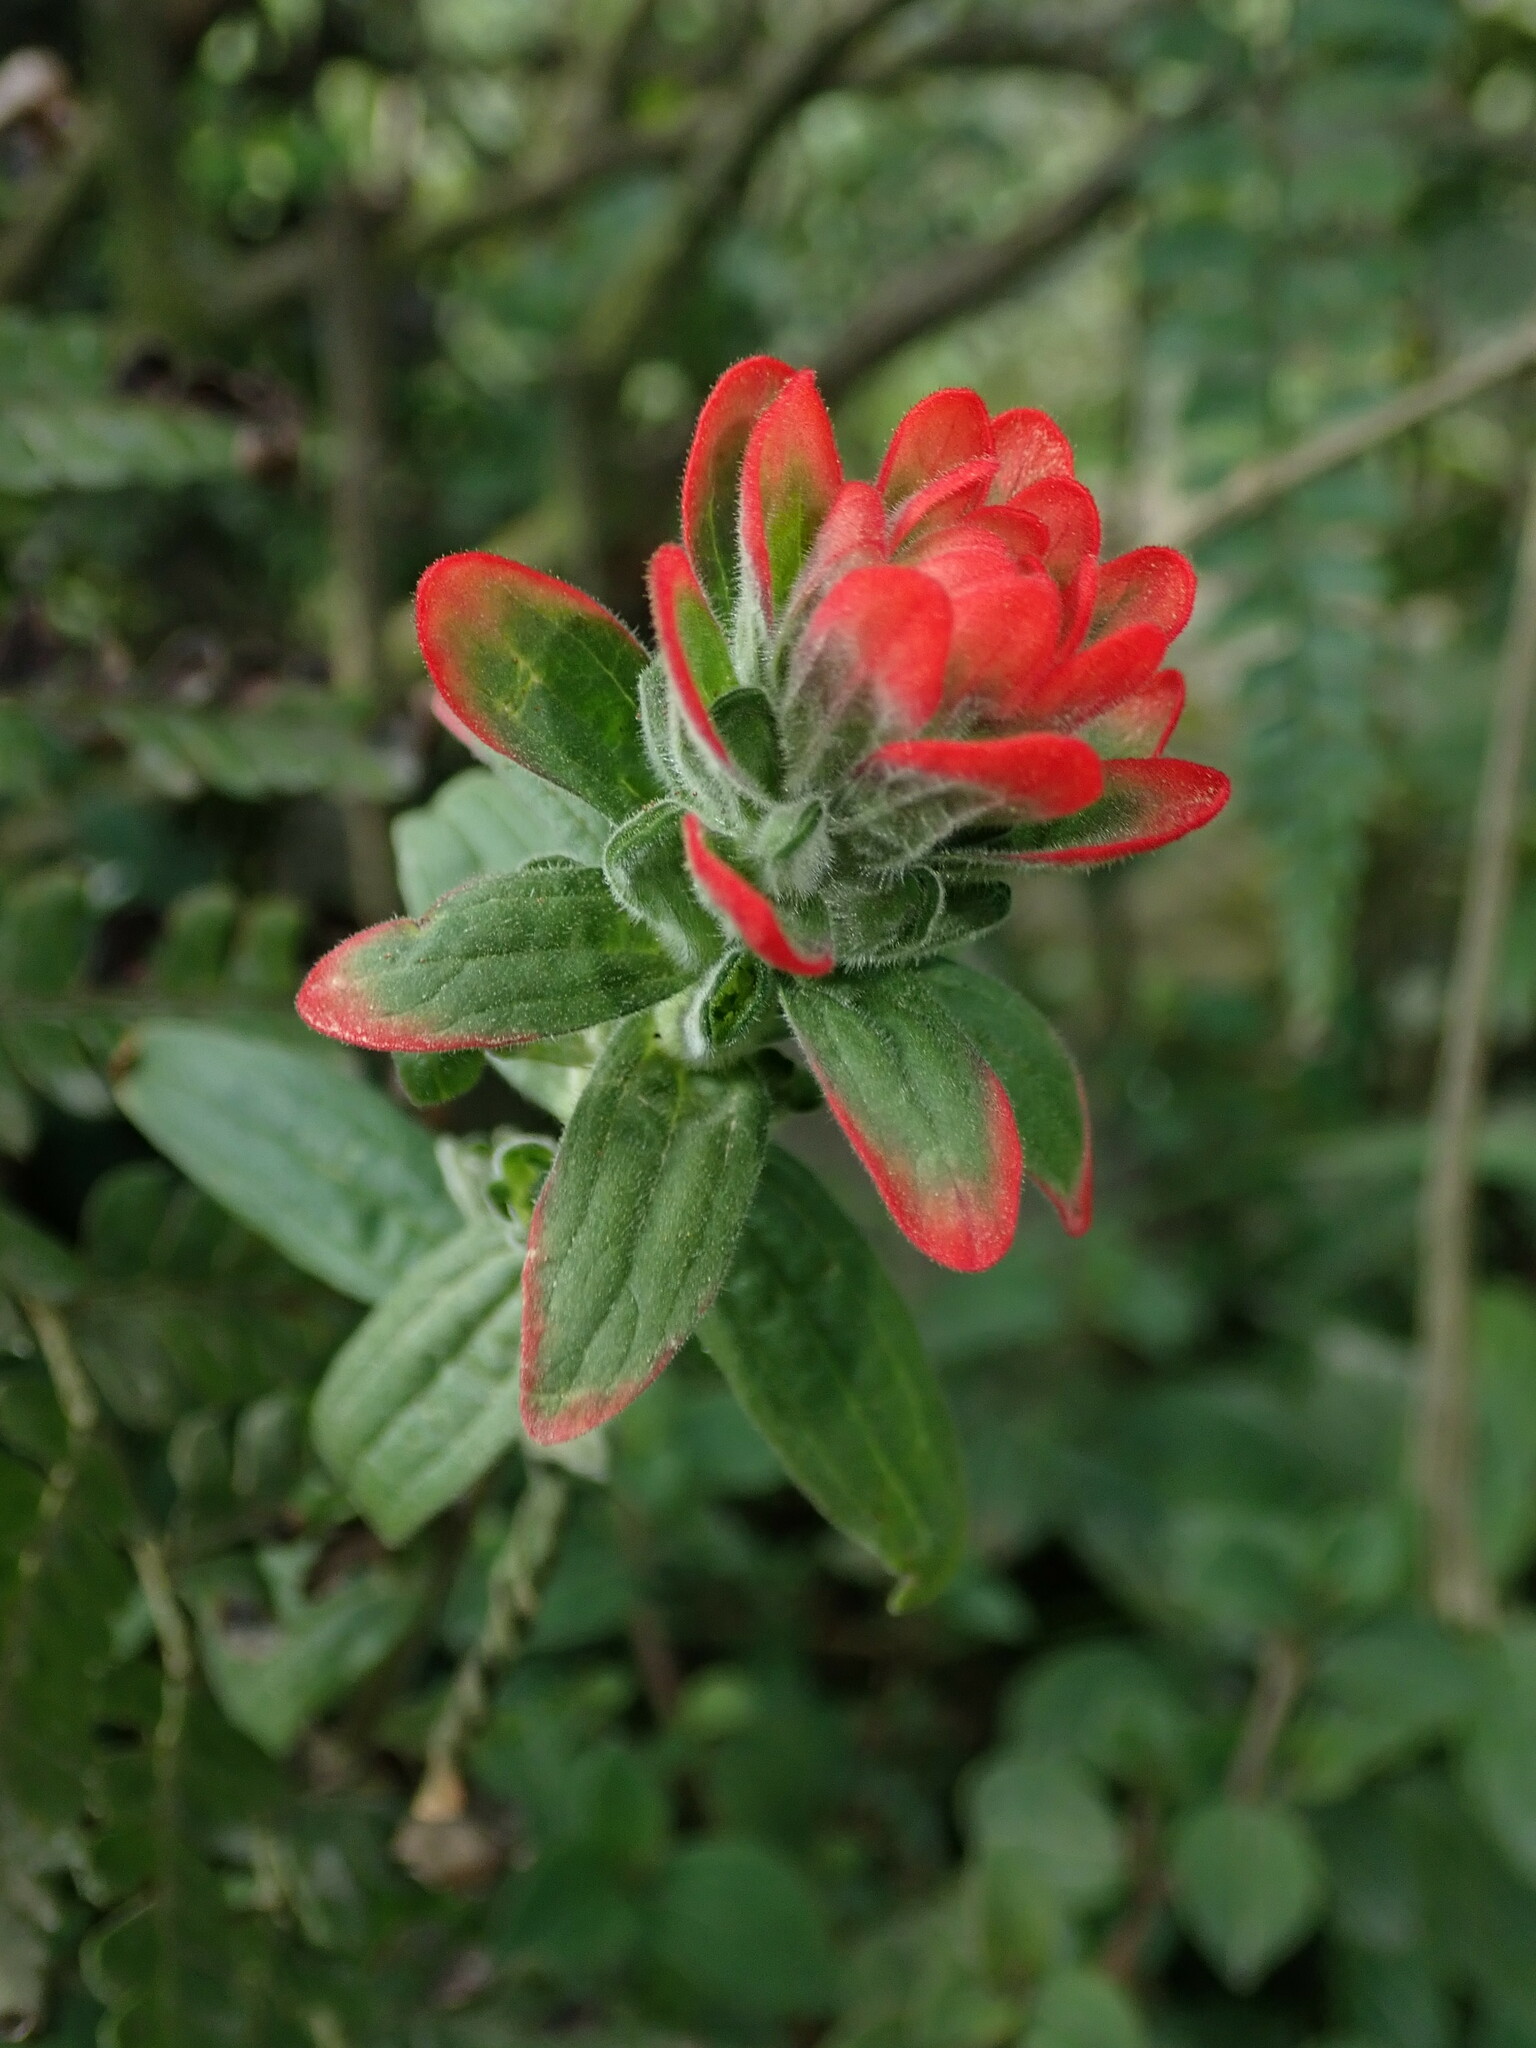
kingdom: Plantae
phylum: Tracheophyta
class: Magnoliopsida
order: Lamiales
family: Orobanchaceae
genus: Castilleja
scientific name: Castilleja arvensis
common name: Indian paintbrush
